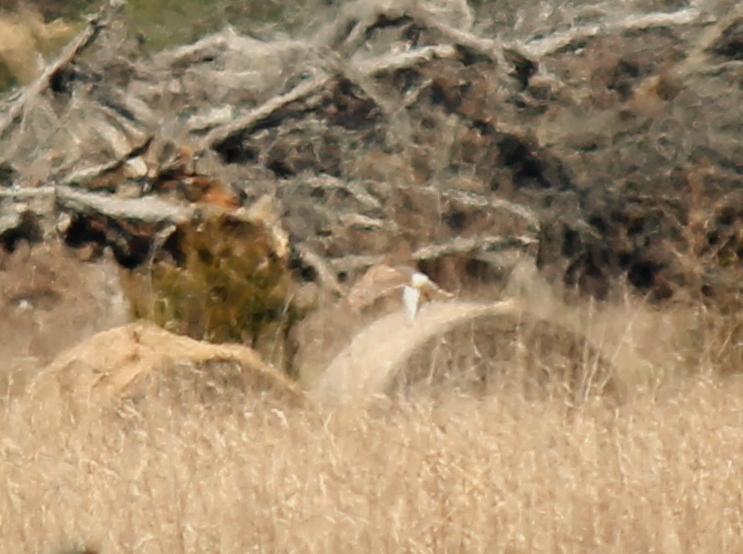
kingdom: Animalia
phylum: Chordata
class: Aves
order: Accipitriformes
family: Accipitridae
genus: Circus
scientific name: Circus cyaneus
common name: Hen harrier
